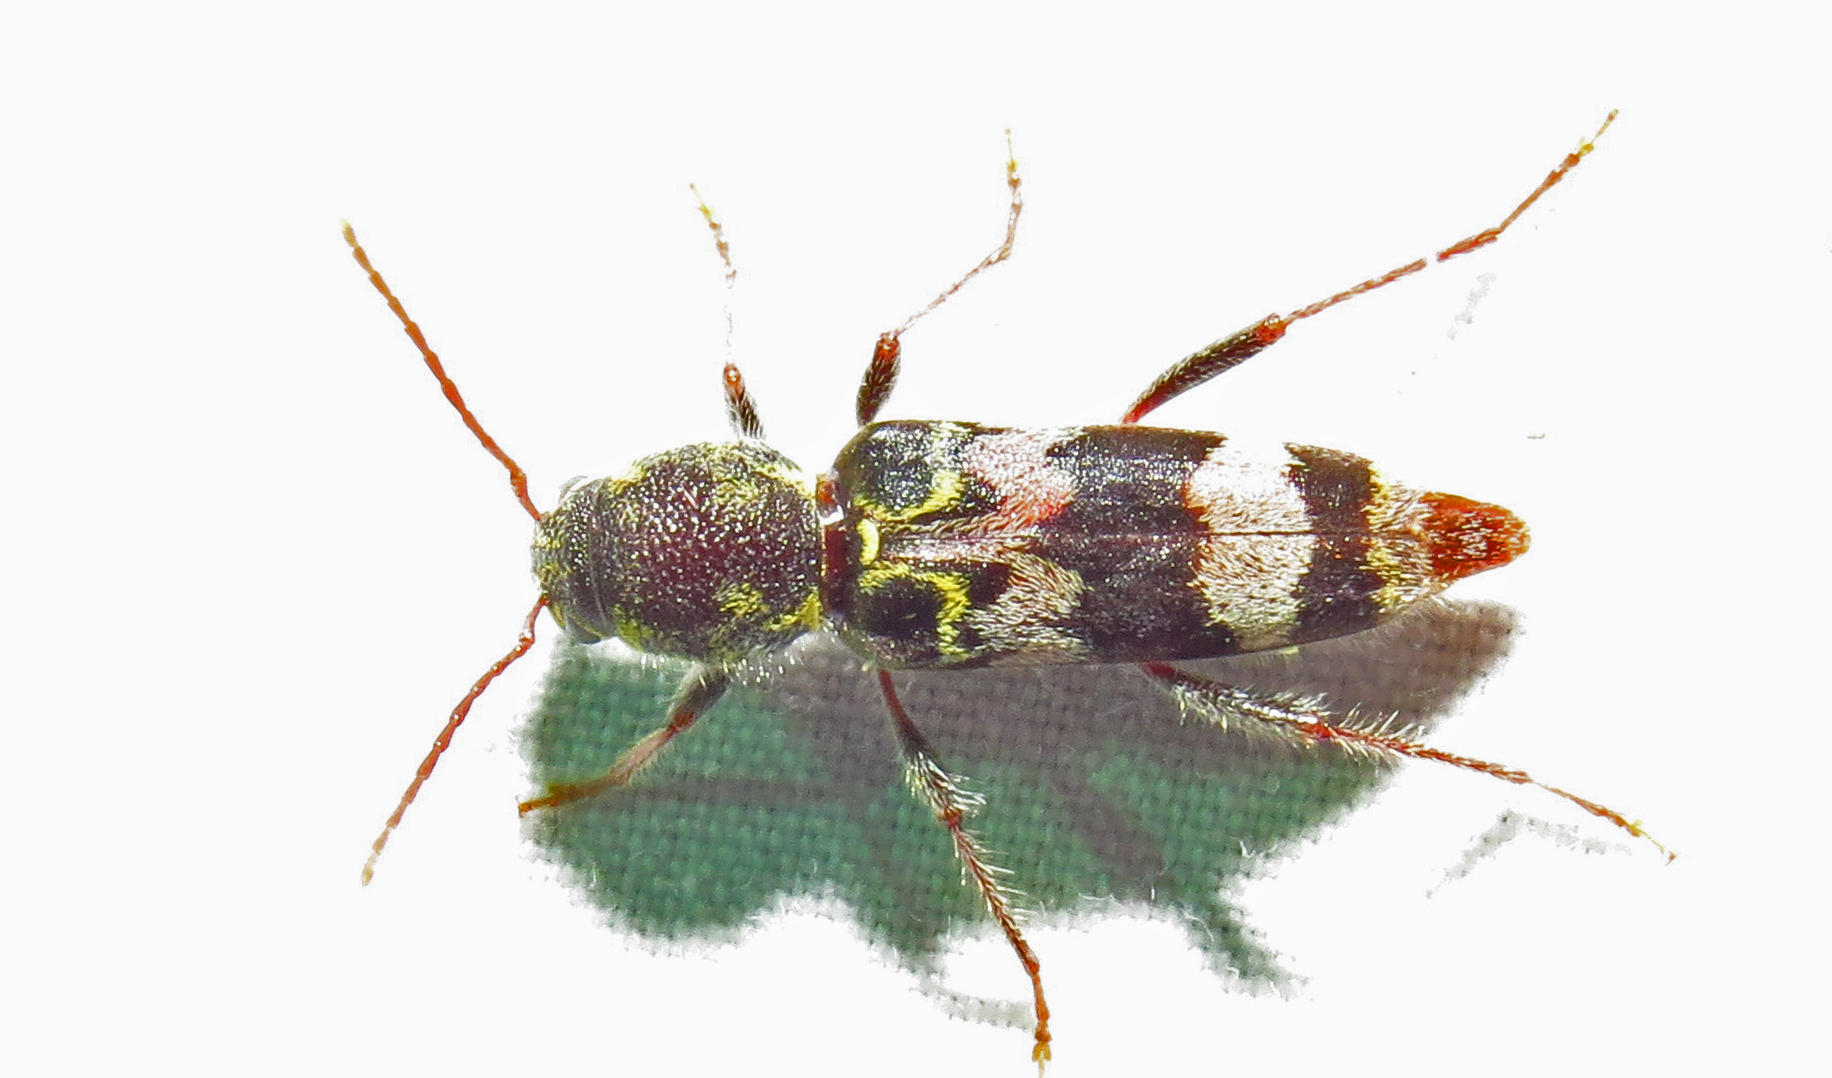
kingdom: Animalia
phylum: Arthropoda
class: Insecta
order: Coleoptera
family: Cerambycidae
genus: Xylotrechus
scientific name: Xylotrechus colonus
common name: Long-horned beetle
